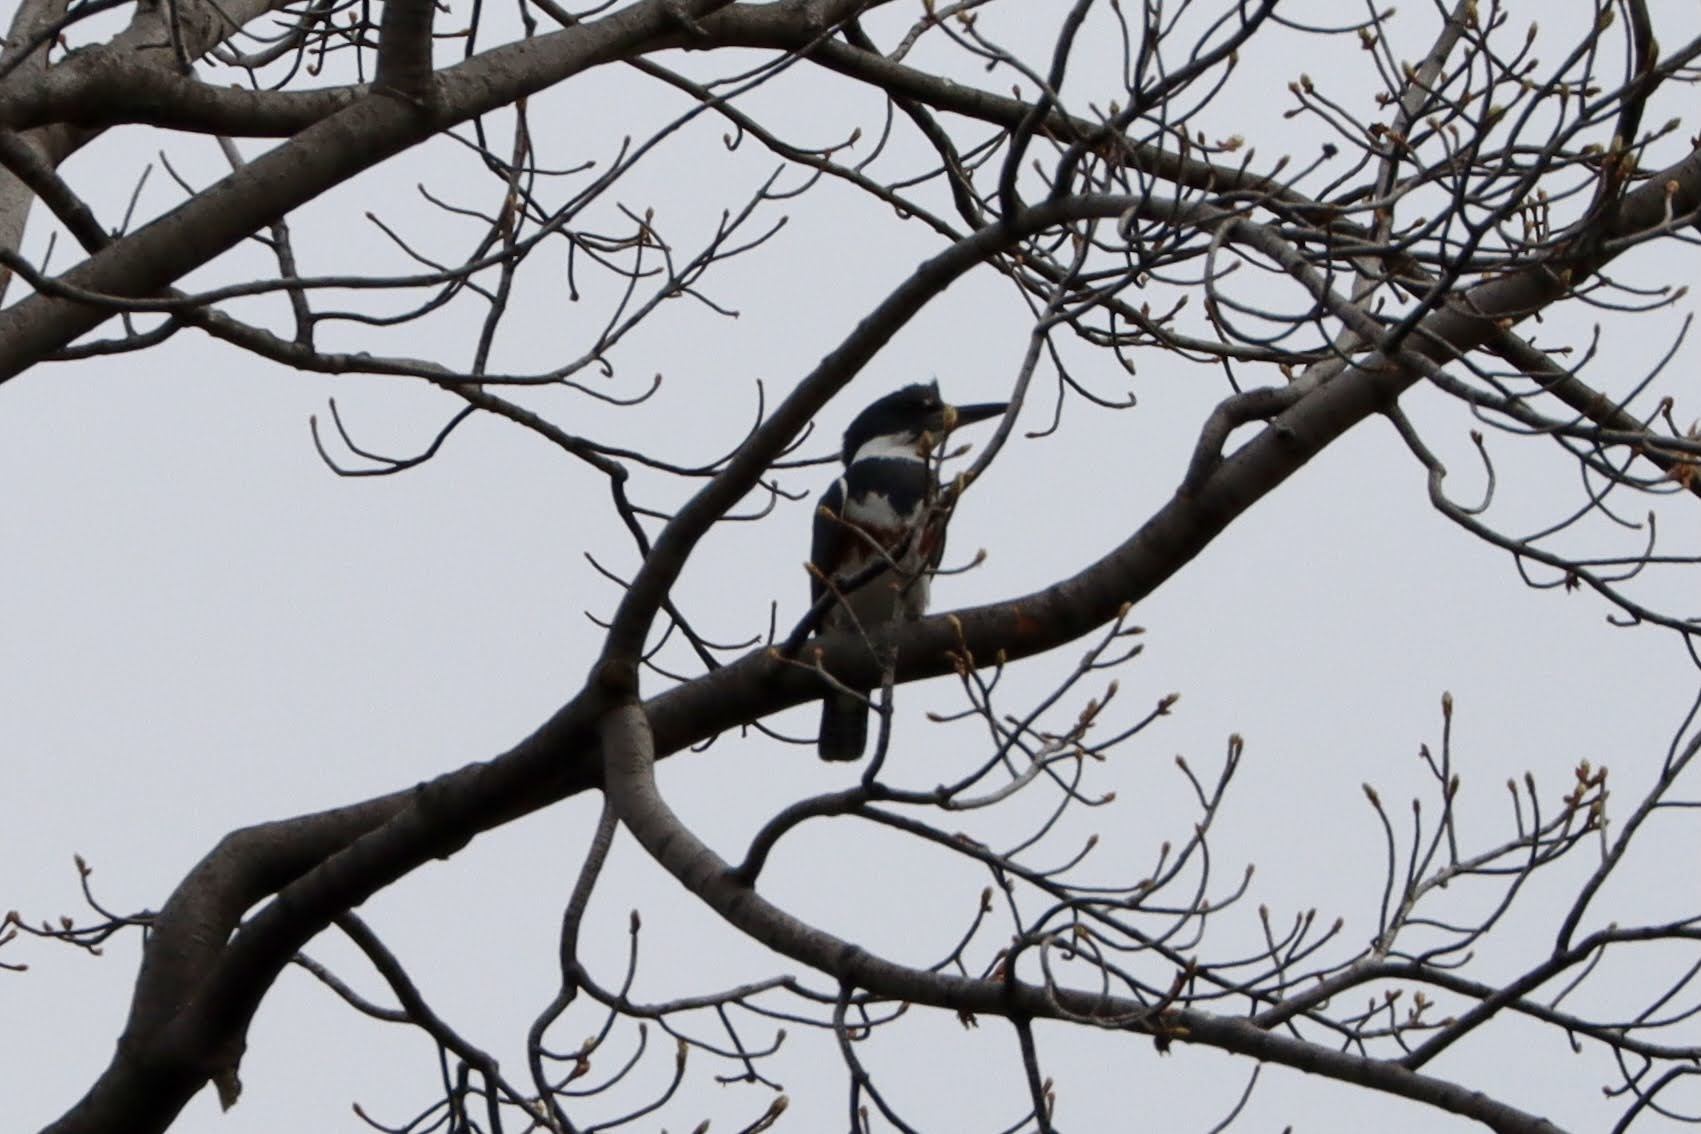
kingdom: Animalia
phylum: Chordata
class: Aves
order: Coraciiformes
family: Alcedinidae
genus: Megaceryle
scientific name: Megaceryle alcyon
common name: Belted kingfisher
